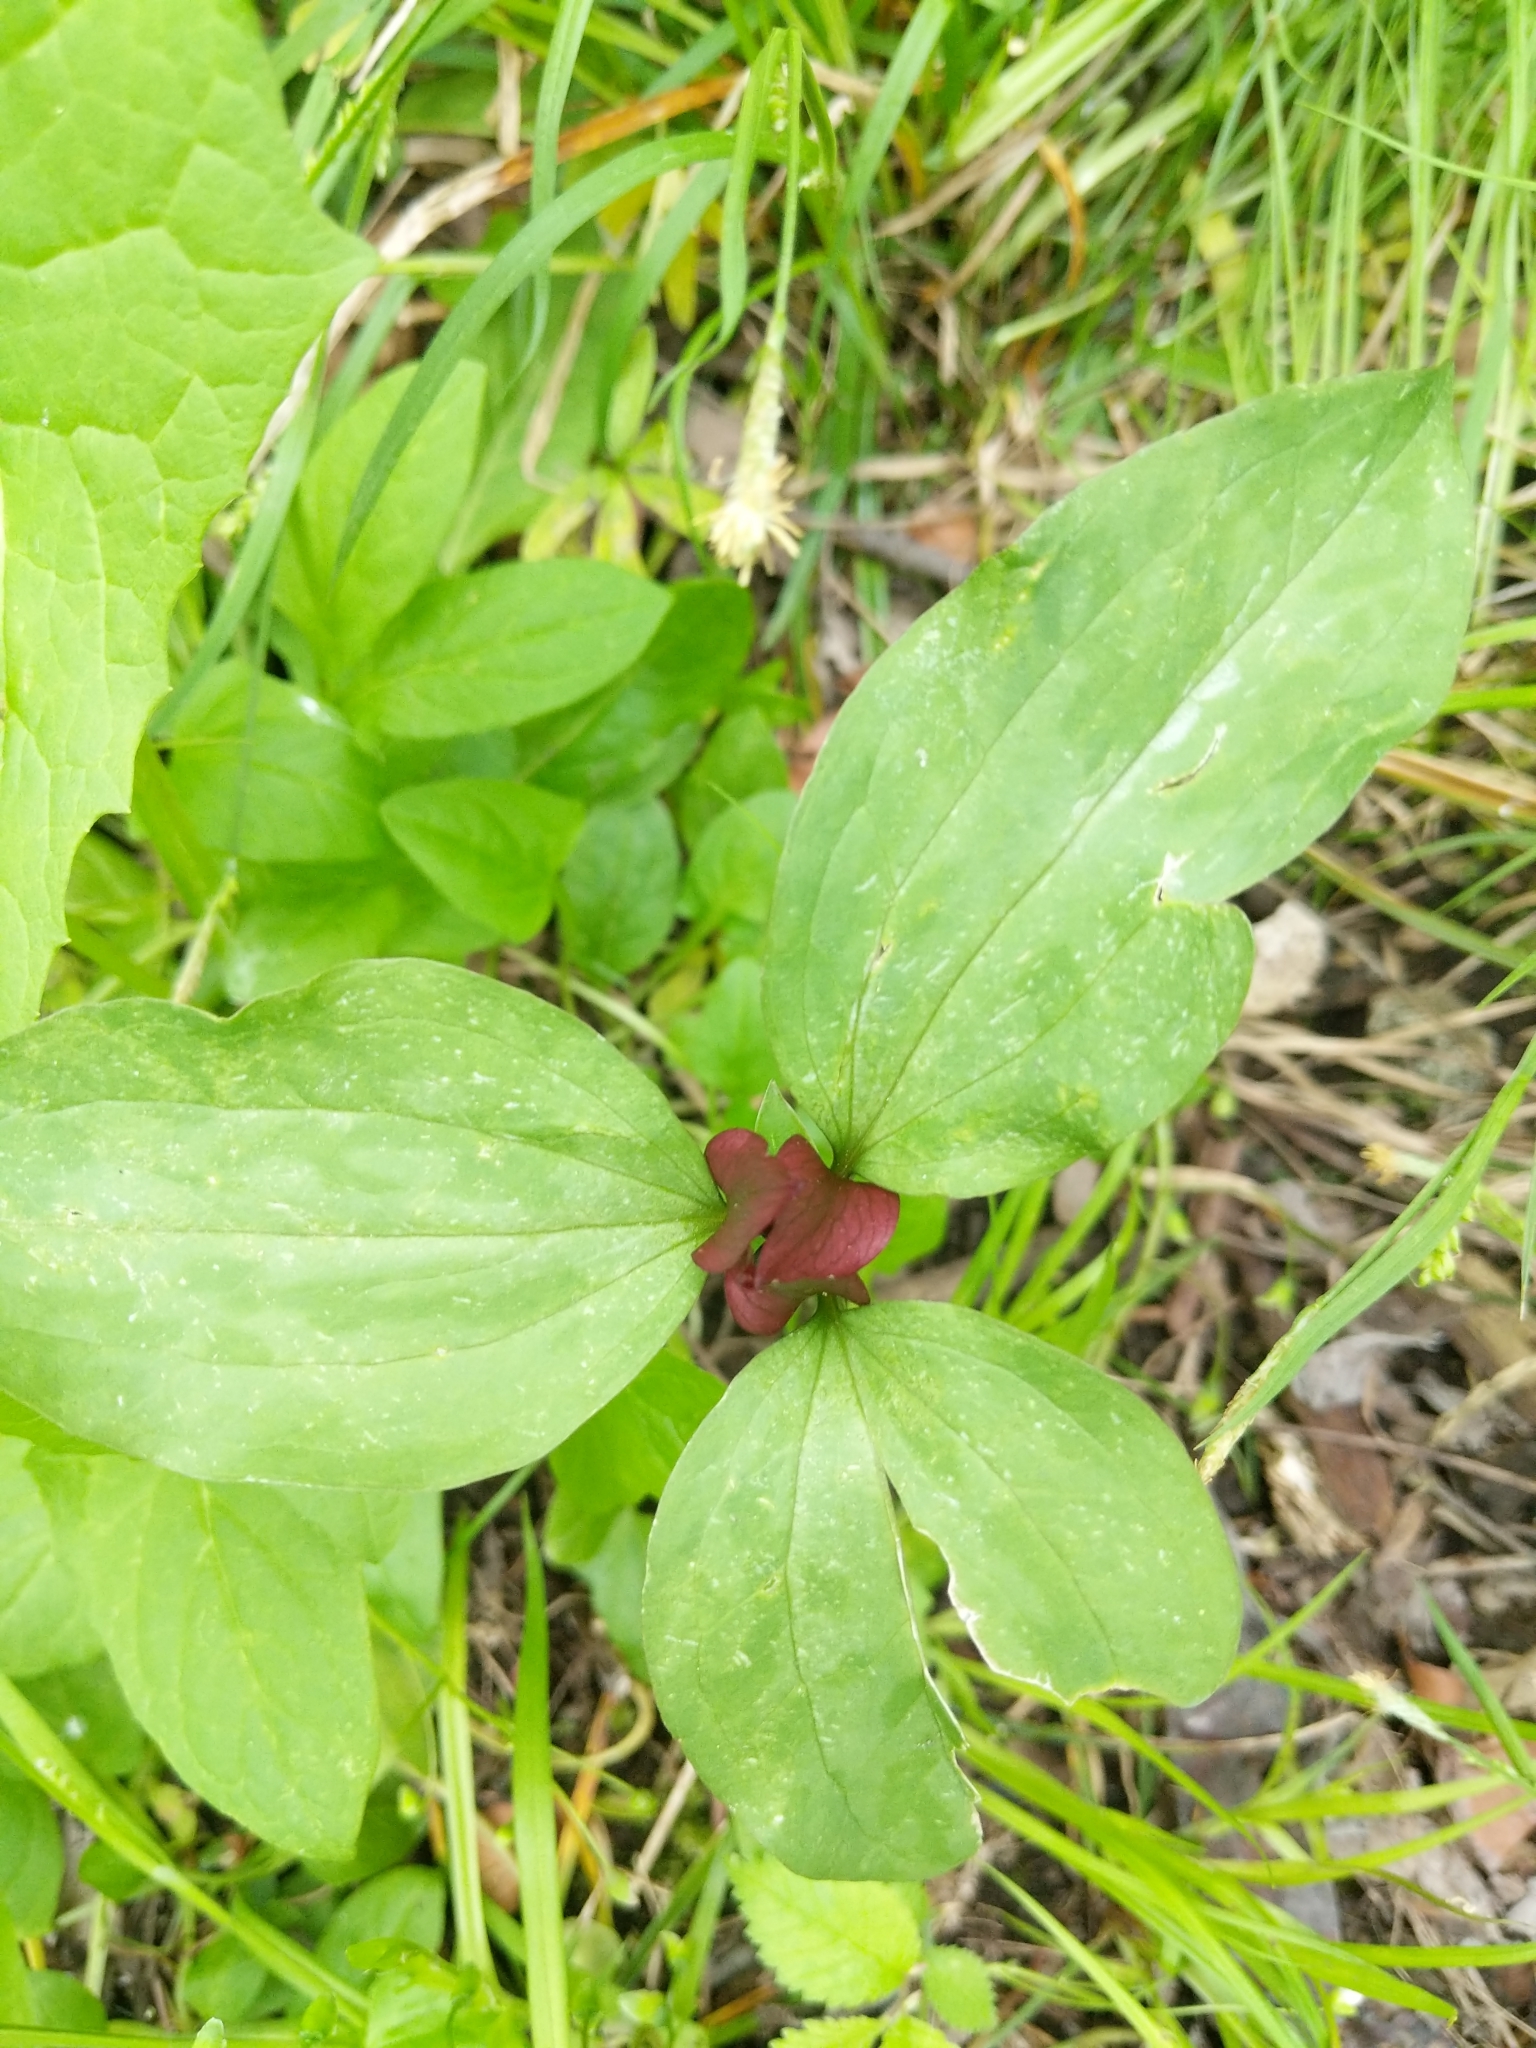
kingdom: Plantae
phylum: Tracheophyta
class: Liliopsida
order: Liliales
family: Melanthiaceae
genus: Trillium
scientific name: Trillium recurvatum
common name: Bloody butcher
